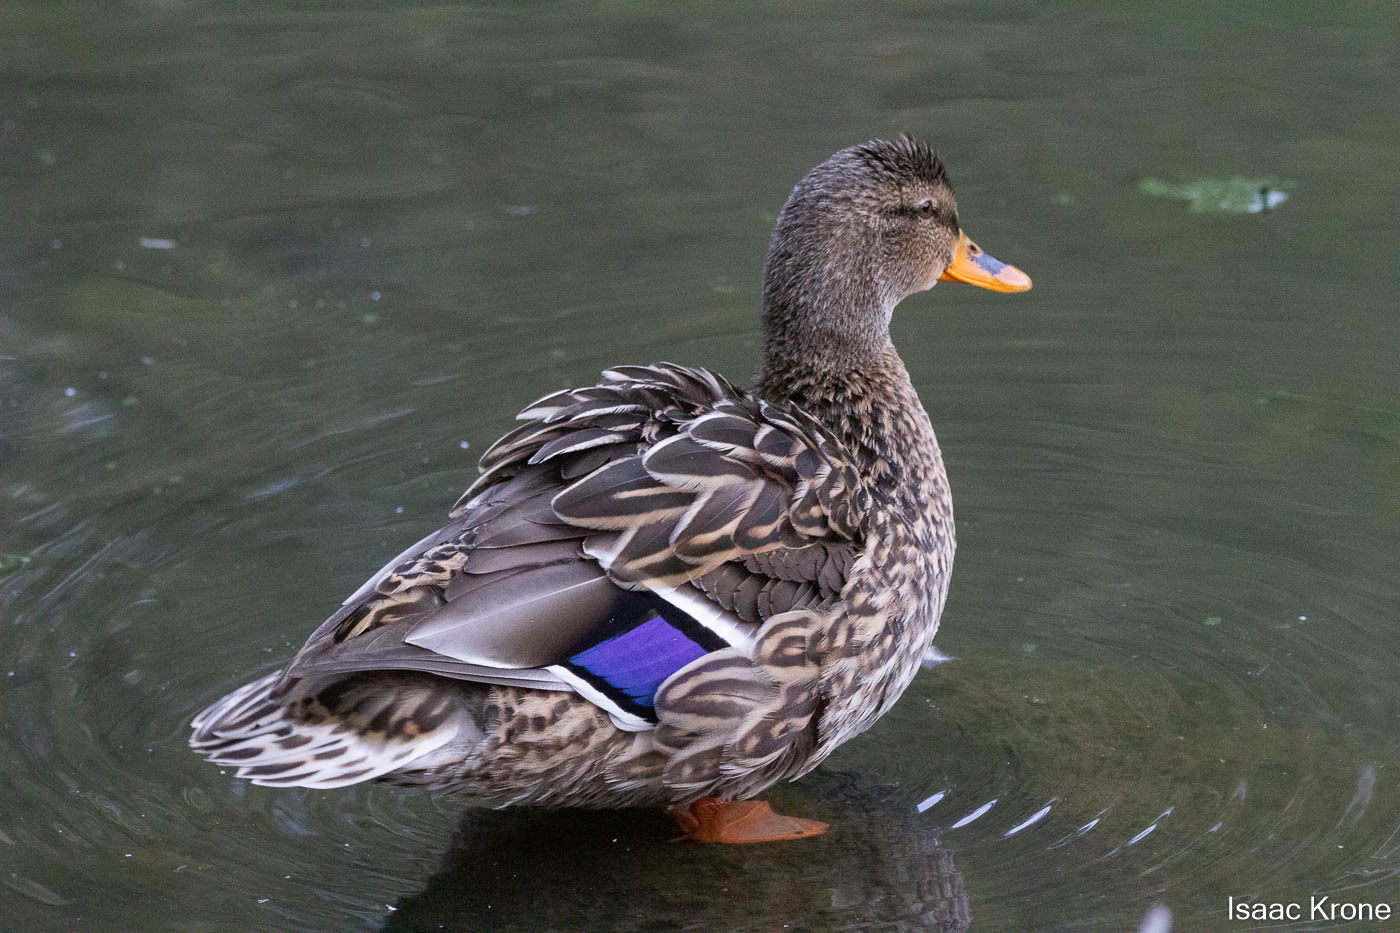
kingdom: Animalia
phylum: Chordata
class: Aves
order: Anseriformes
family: Anatidae
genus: Anas
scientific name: Anas platyrhynchos
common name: Mallard
